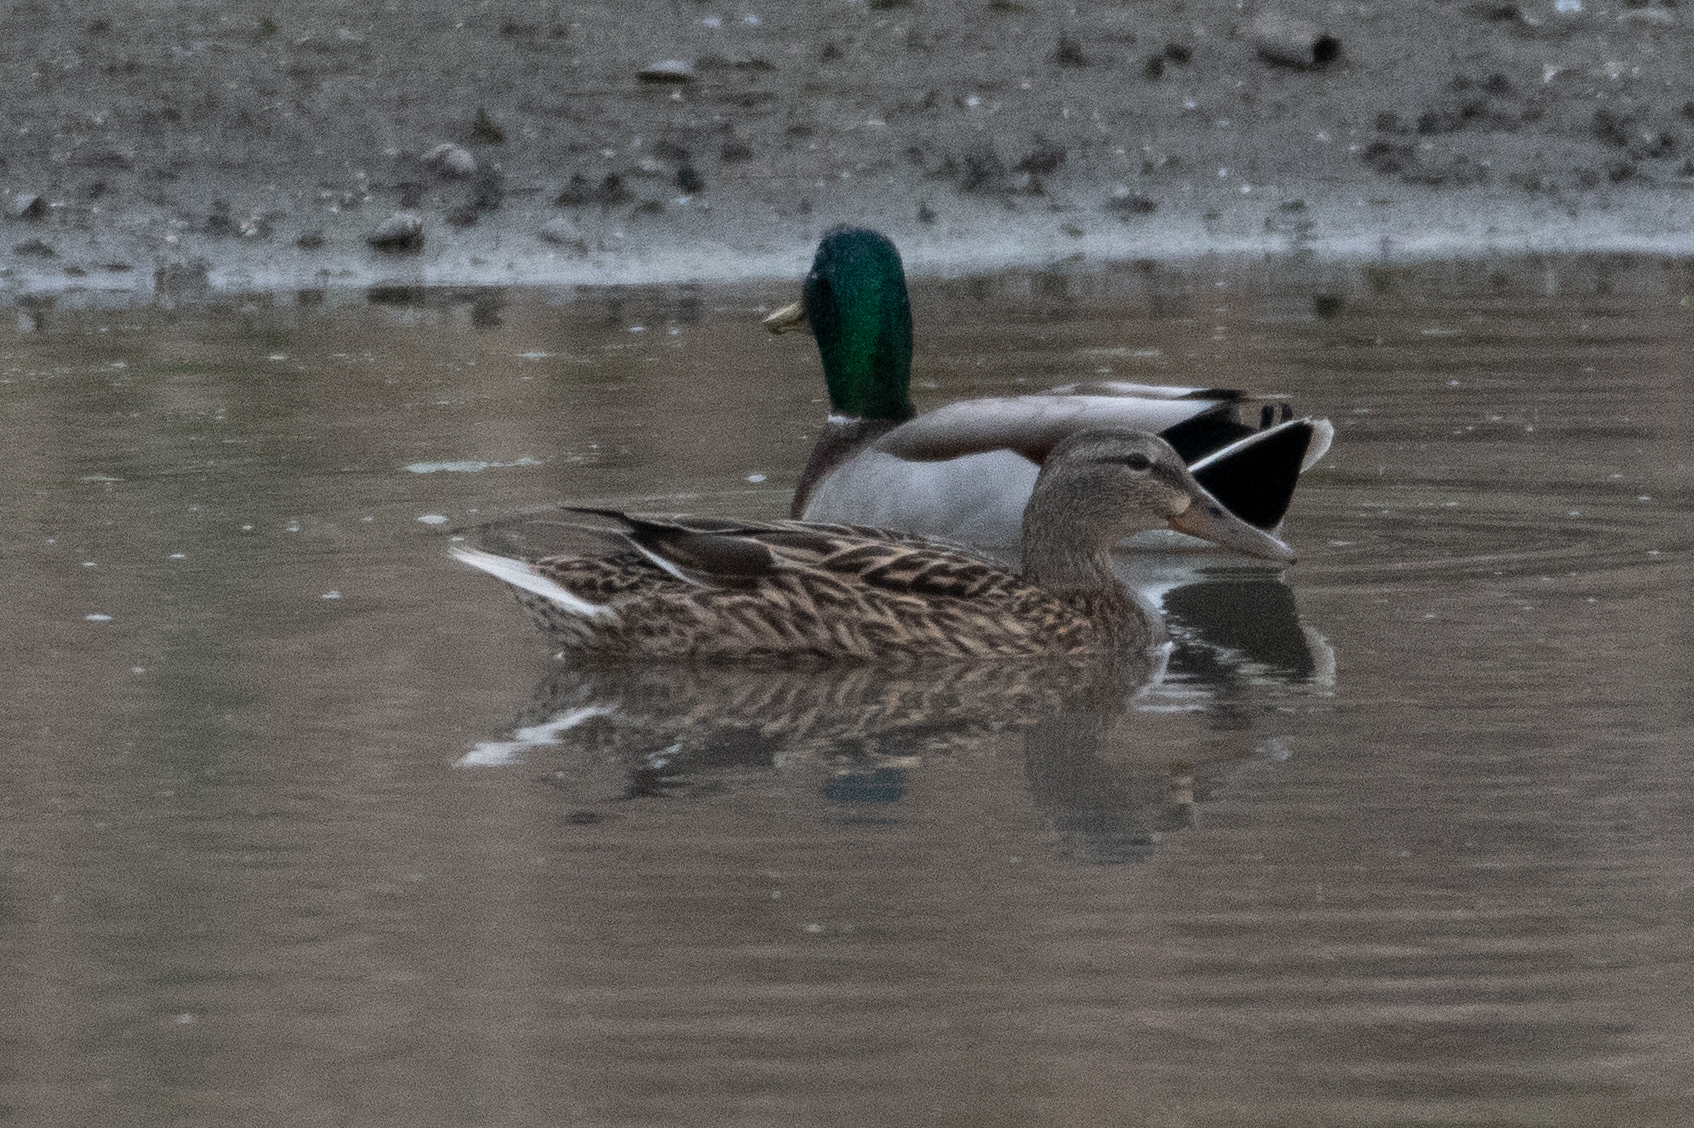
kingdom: Animalia
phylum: Chordata
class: Aves
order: Anseriformes
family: Anatidae
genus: Anas
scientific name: Anas platyrhynchos
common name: Mallard
